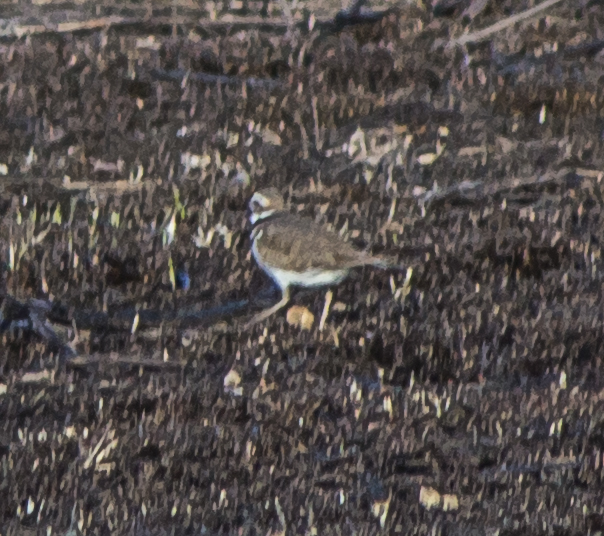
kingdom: Animalia
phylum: Chordata
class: Aves
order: Charadriiformes
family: Charadriidae
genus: Charadrius
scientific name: Charadrius vociferus
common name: Killdeer
